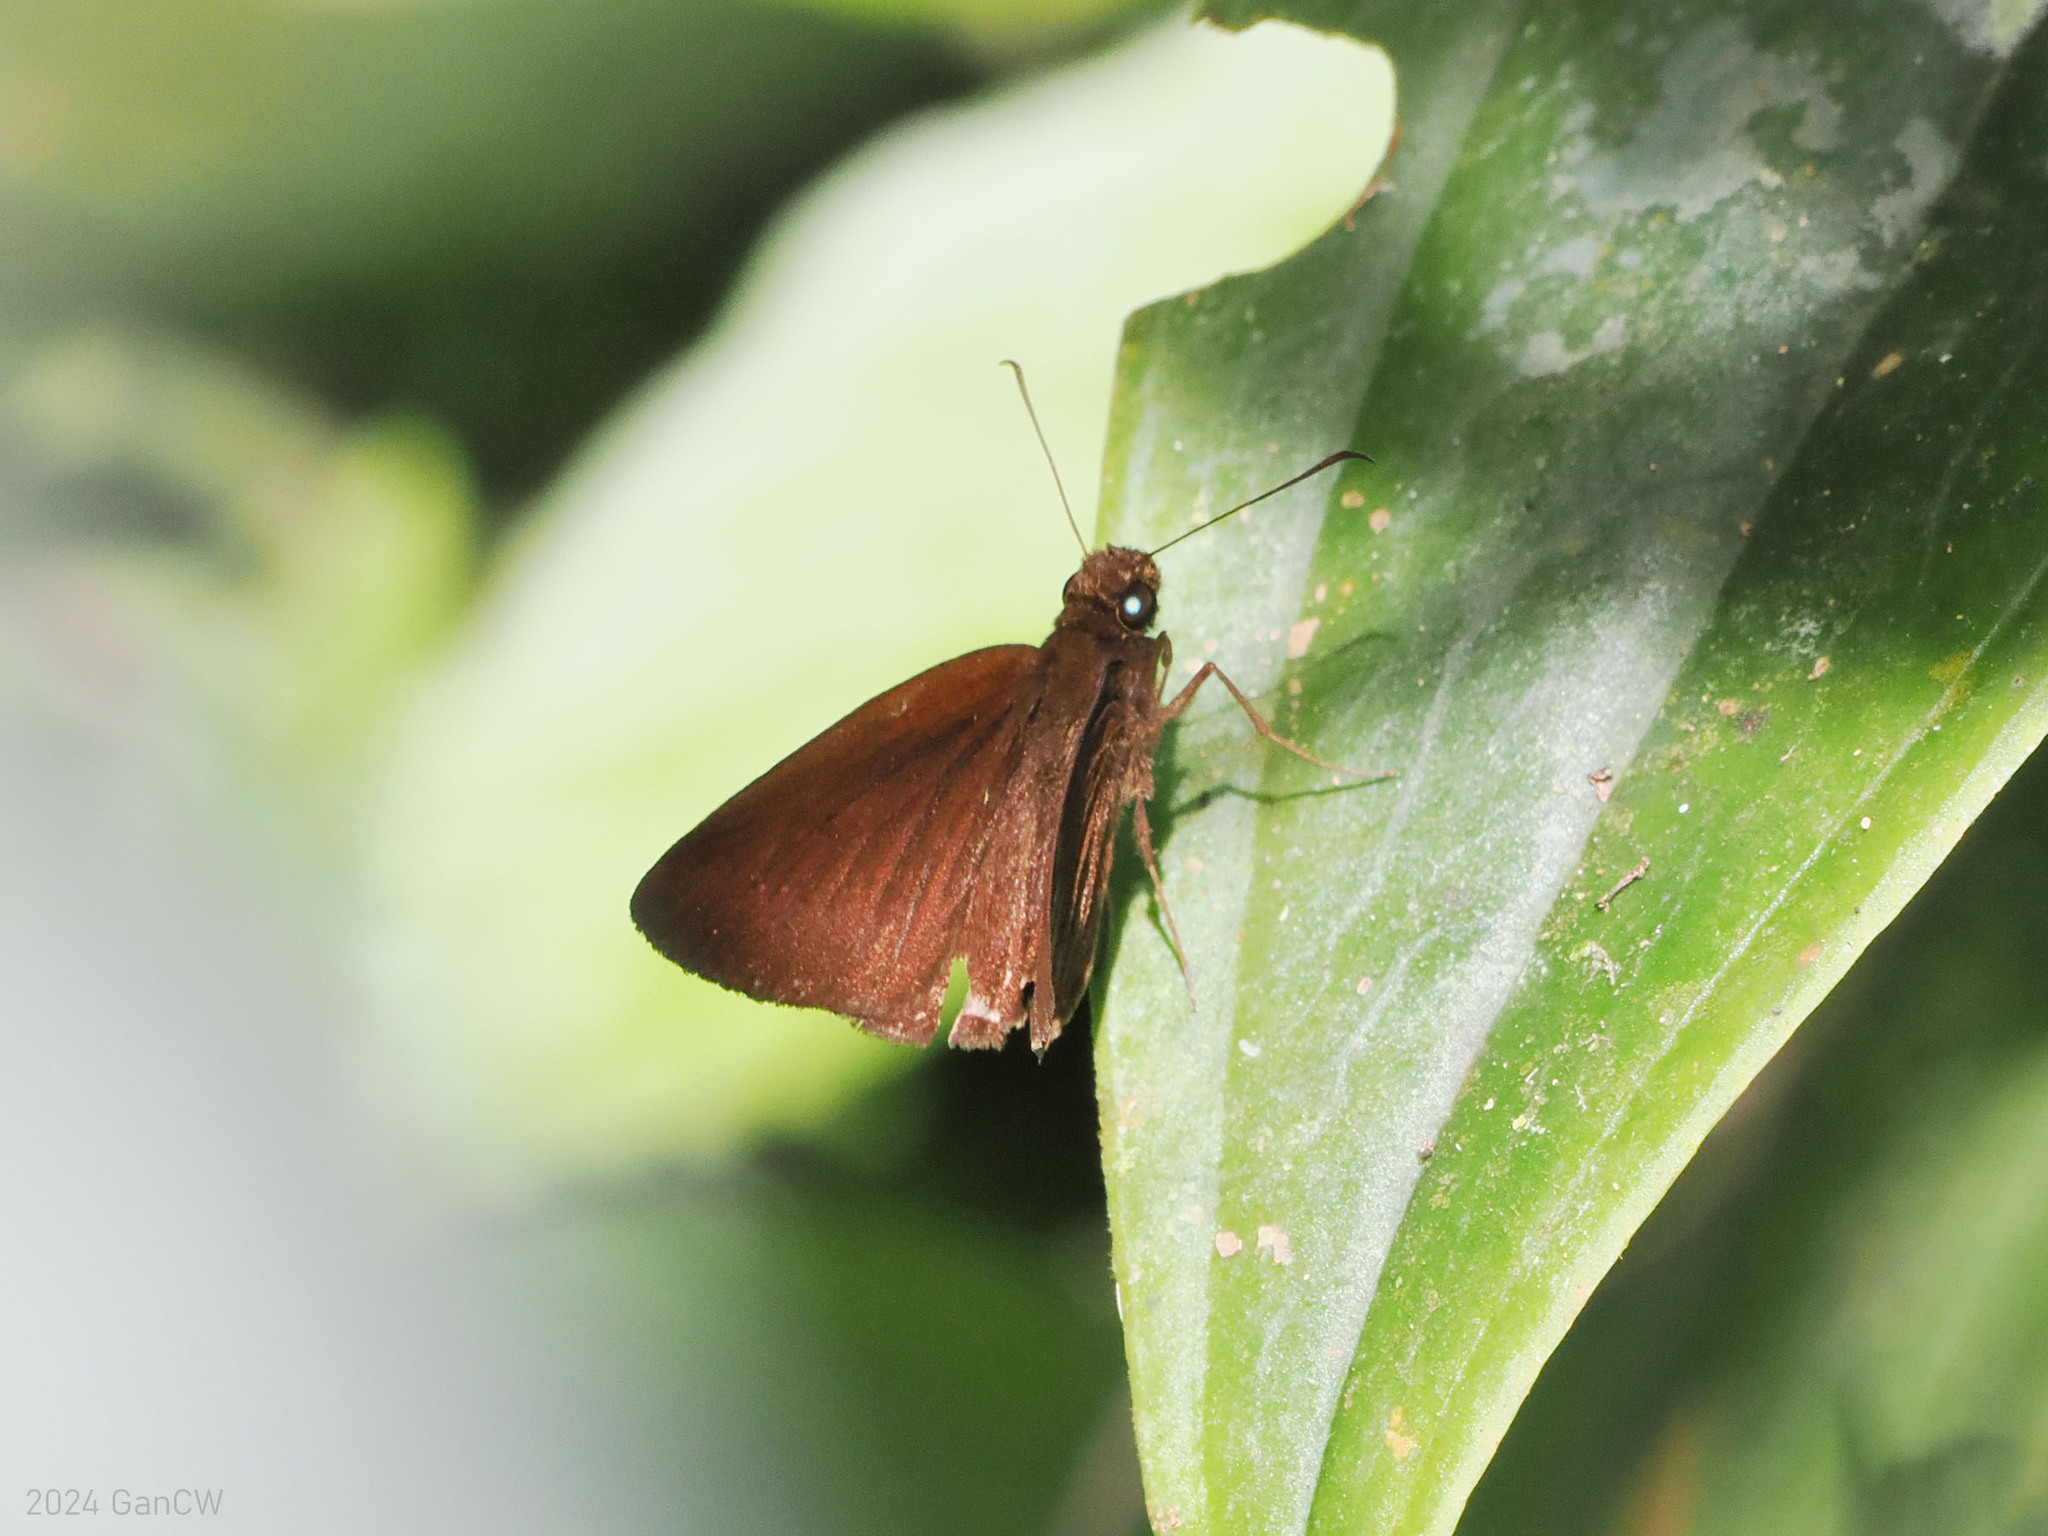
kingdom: Animalia
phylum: Arthropoda
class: Insecta
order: Lepidoptera
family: Hesperiidae
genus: Ancistroides
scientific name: Ancistroides nigrita
